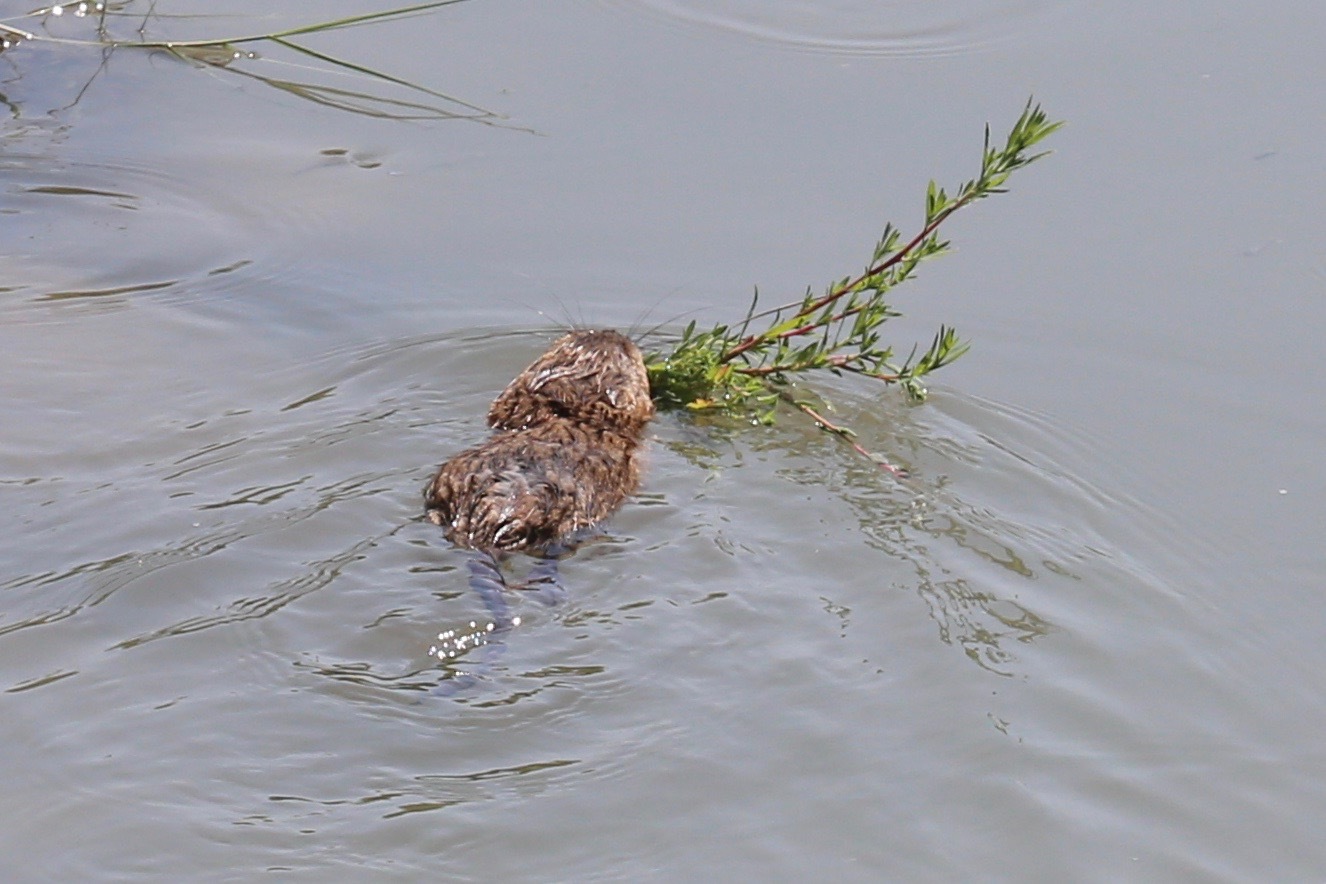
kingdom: Animalia
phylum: Chordata
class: Mammalia
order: Rodentia
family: Cricetidae
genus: Ondatra
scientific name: Ondatra zibethicus
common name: Muskrat
